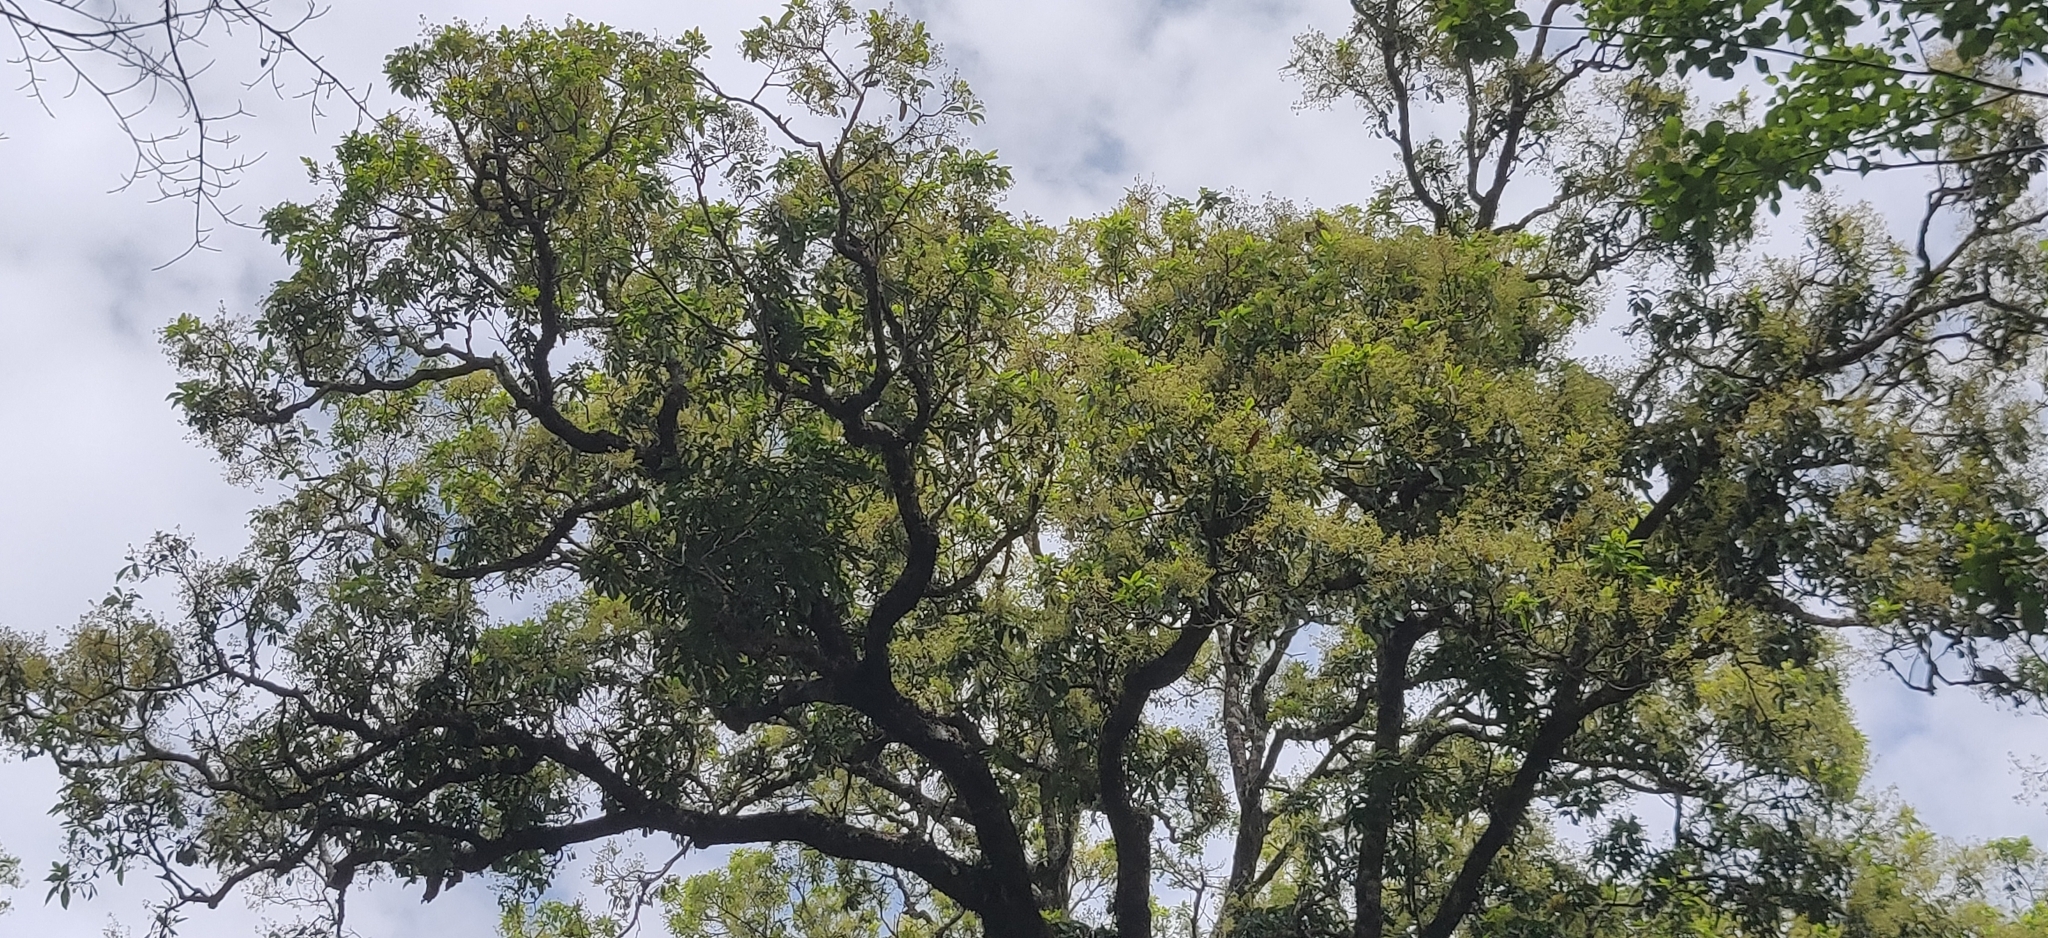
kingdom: Plantae
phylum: Tracheophyta
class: Magnoliopsida
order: Laurales
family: Lauraceae
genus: Machilus
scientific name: Machilus glaucescens
